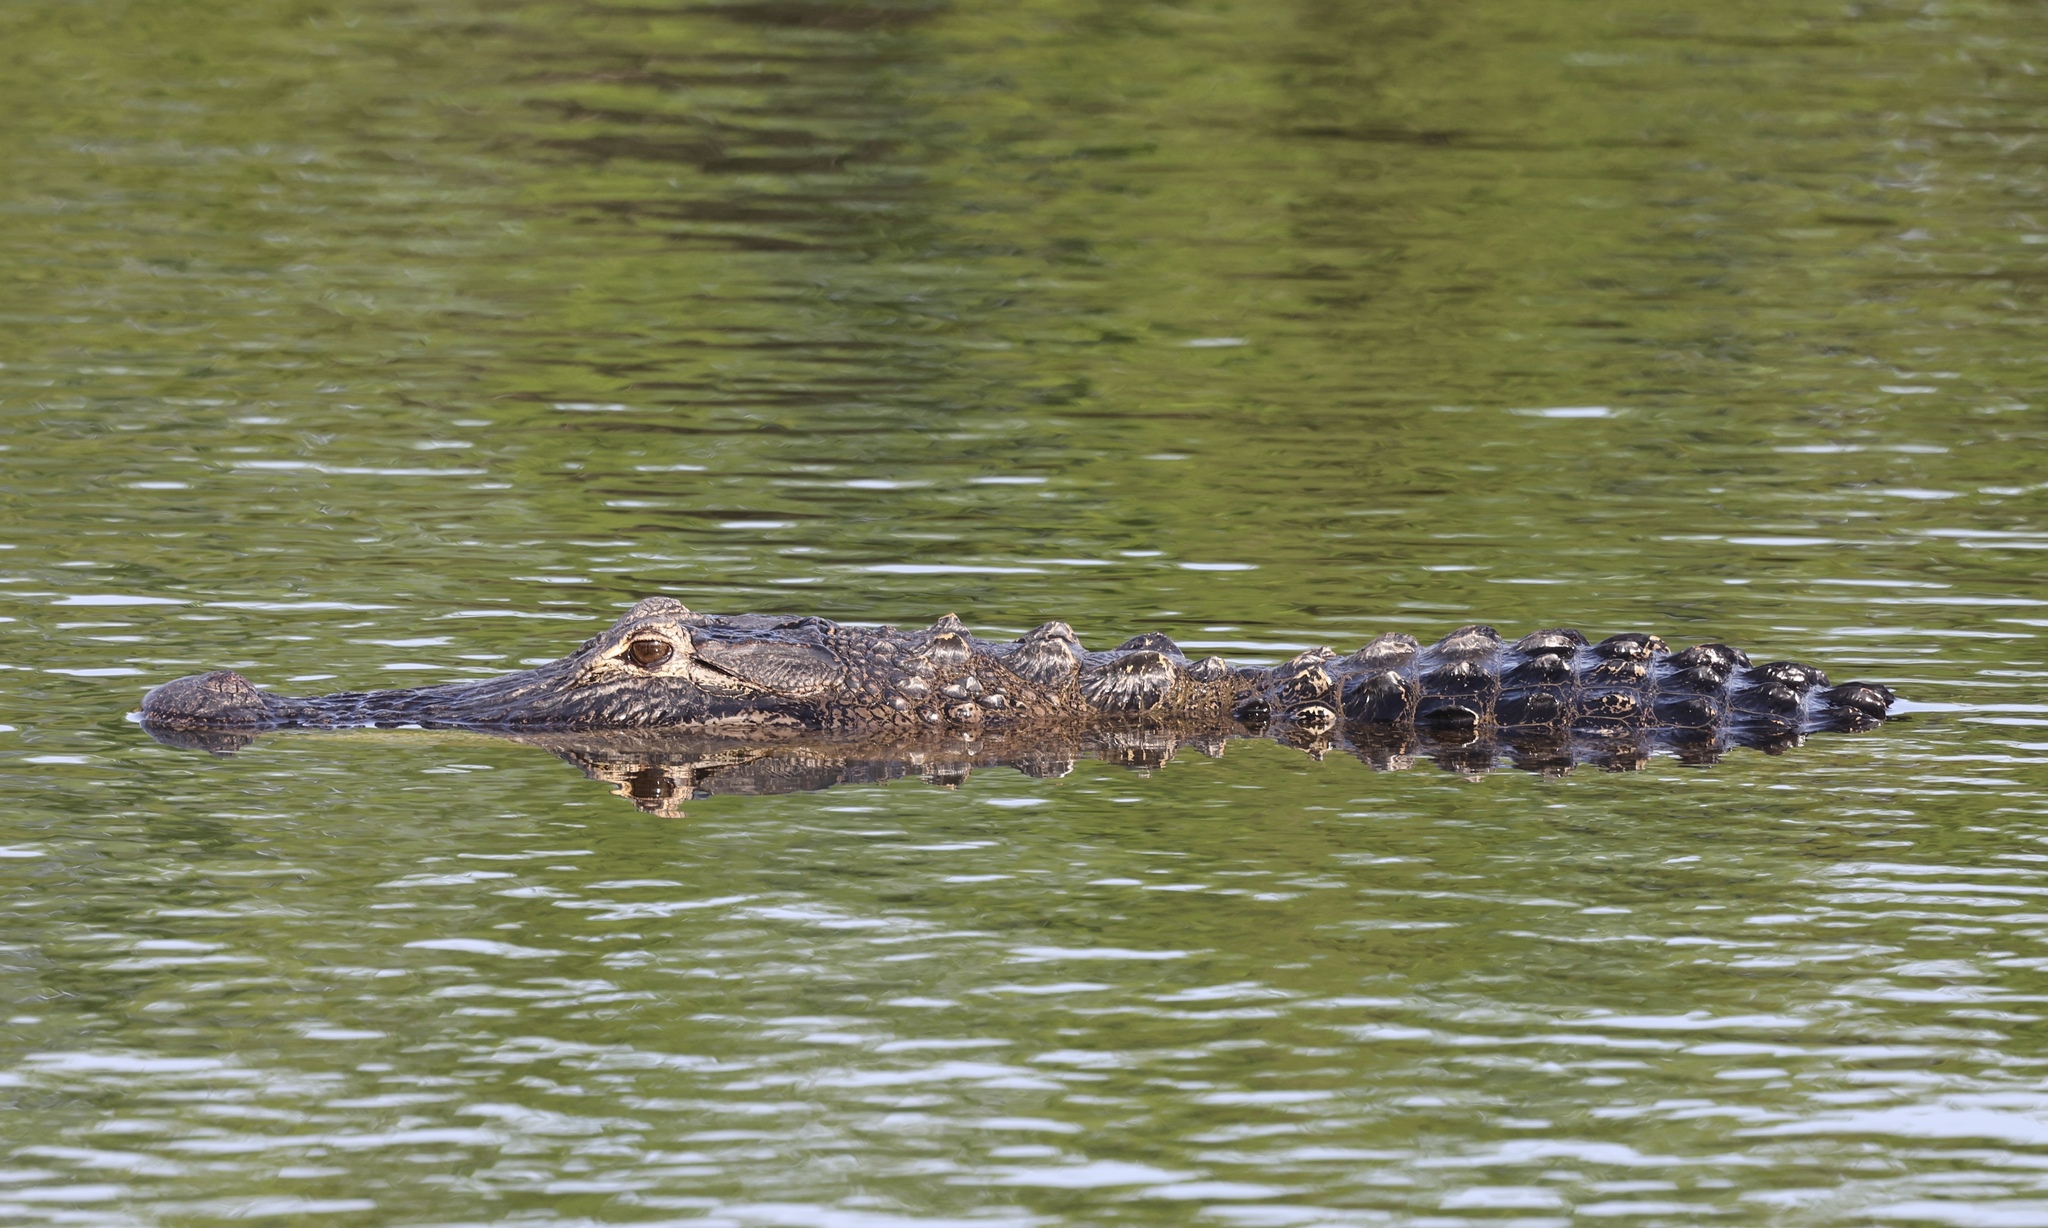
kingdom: Animalia
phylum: Chordata
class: Crocodylia
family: Alligatoridae
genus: Alligator
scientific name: Alligator mississippiensis
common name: American alligator
